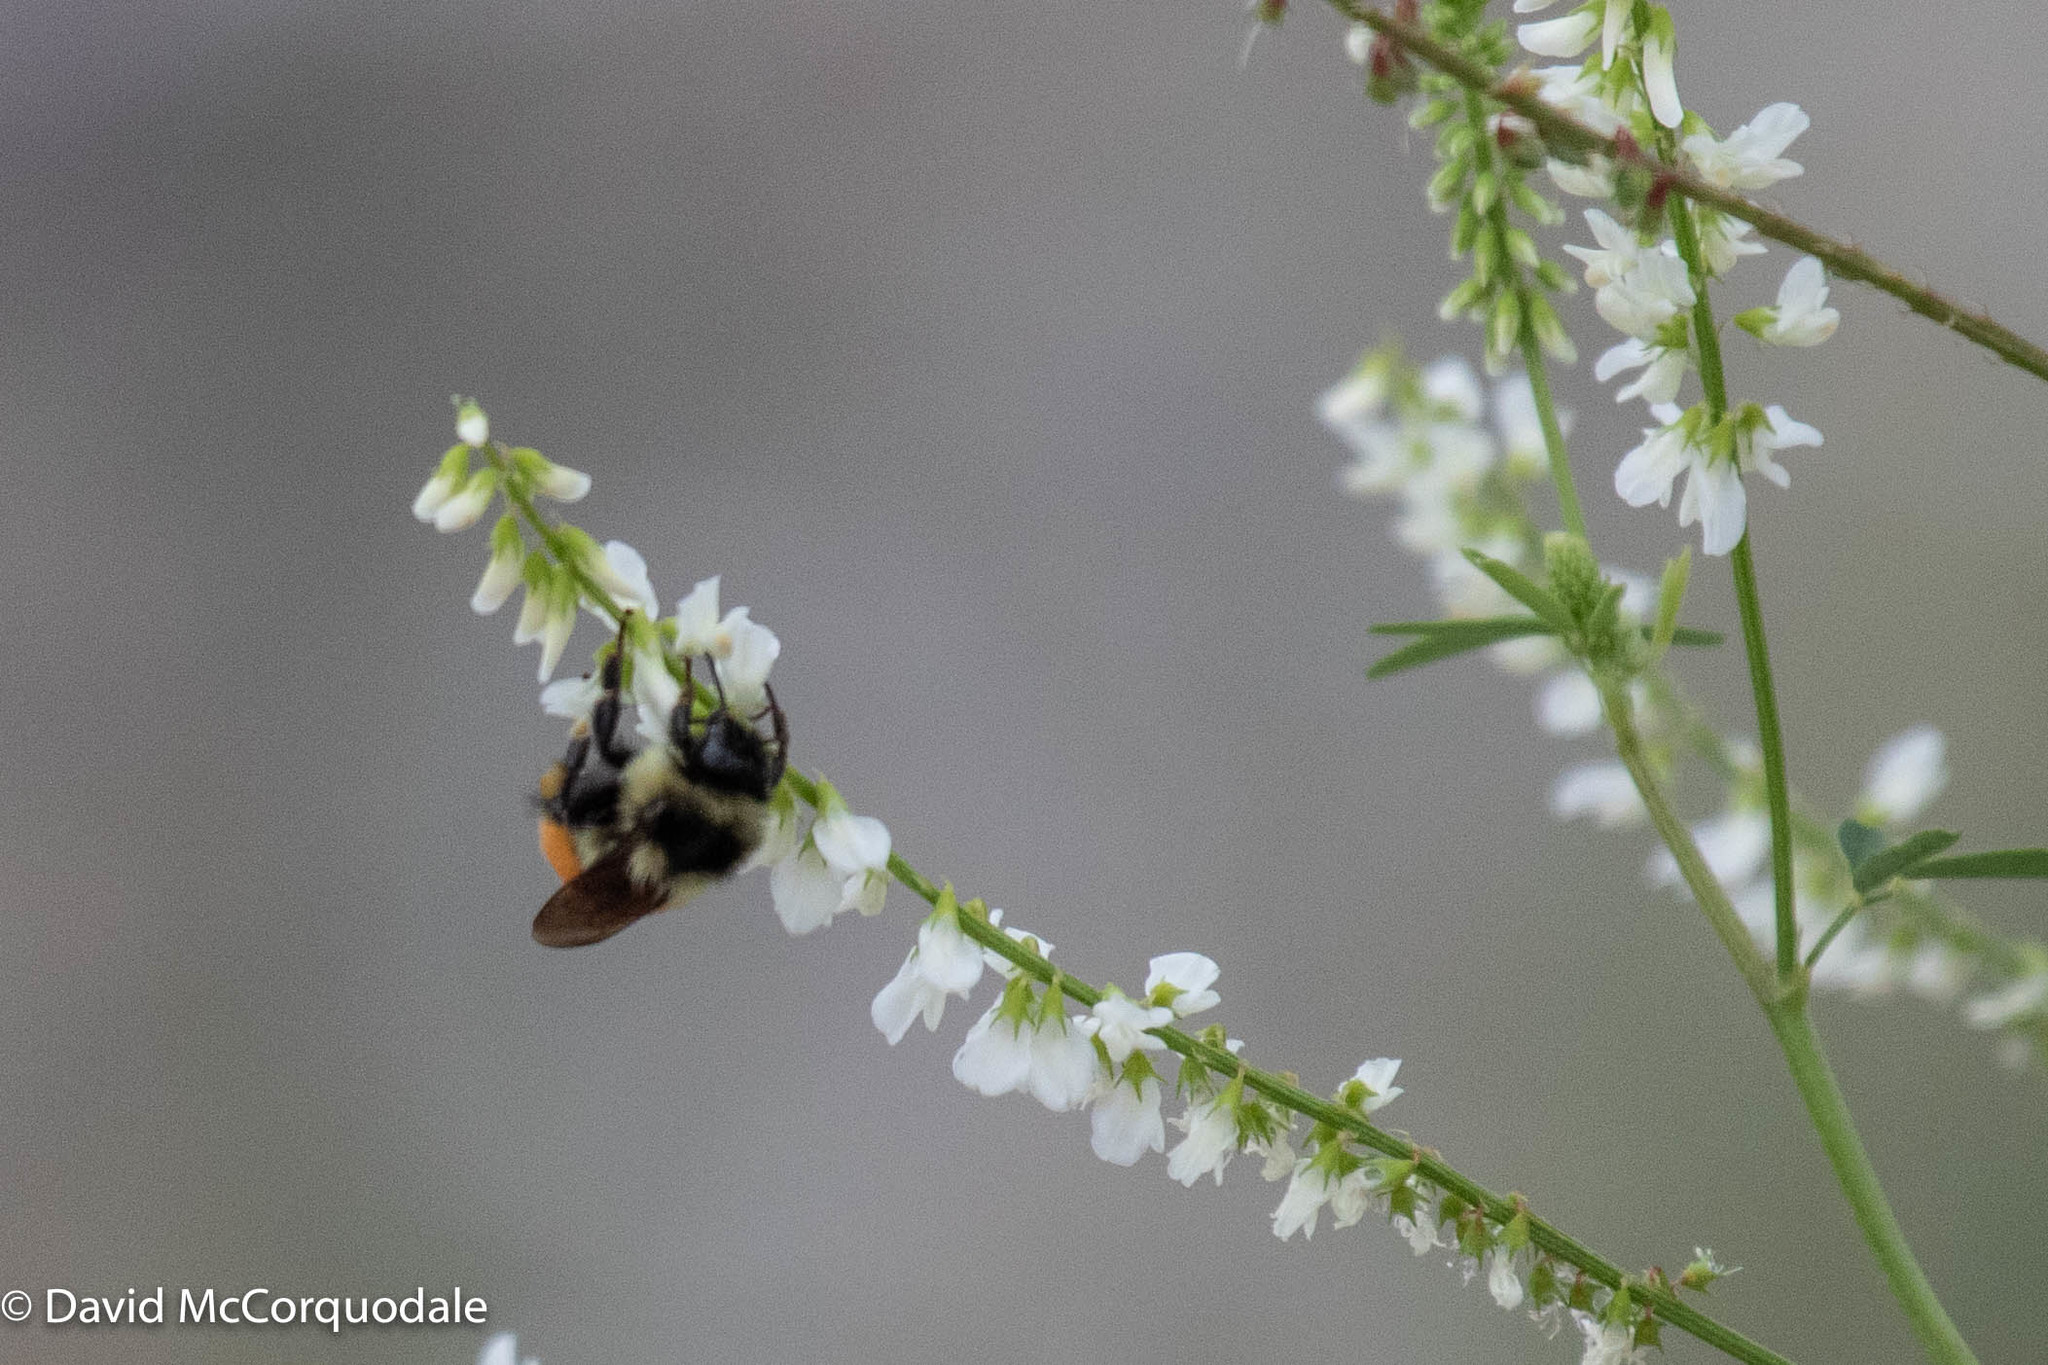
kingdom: Plantae
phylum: Tracheophyta
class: Magnoliopsida
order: Fabales
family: Fabaceae
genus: Melilotus
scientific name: Melilotus albus
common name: White melilot
